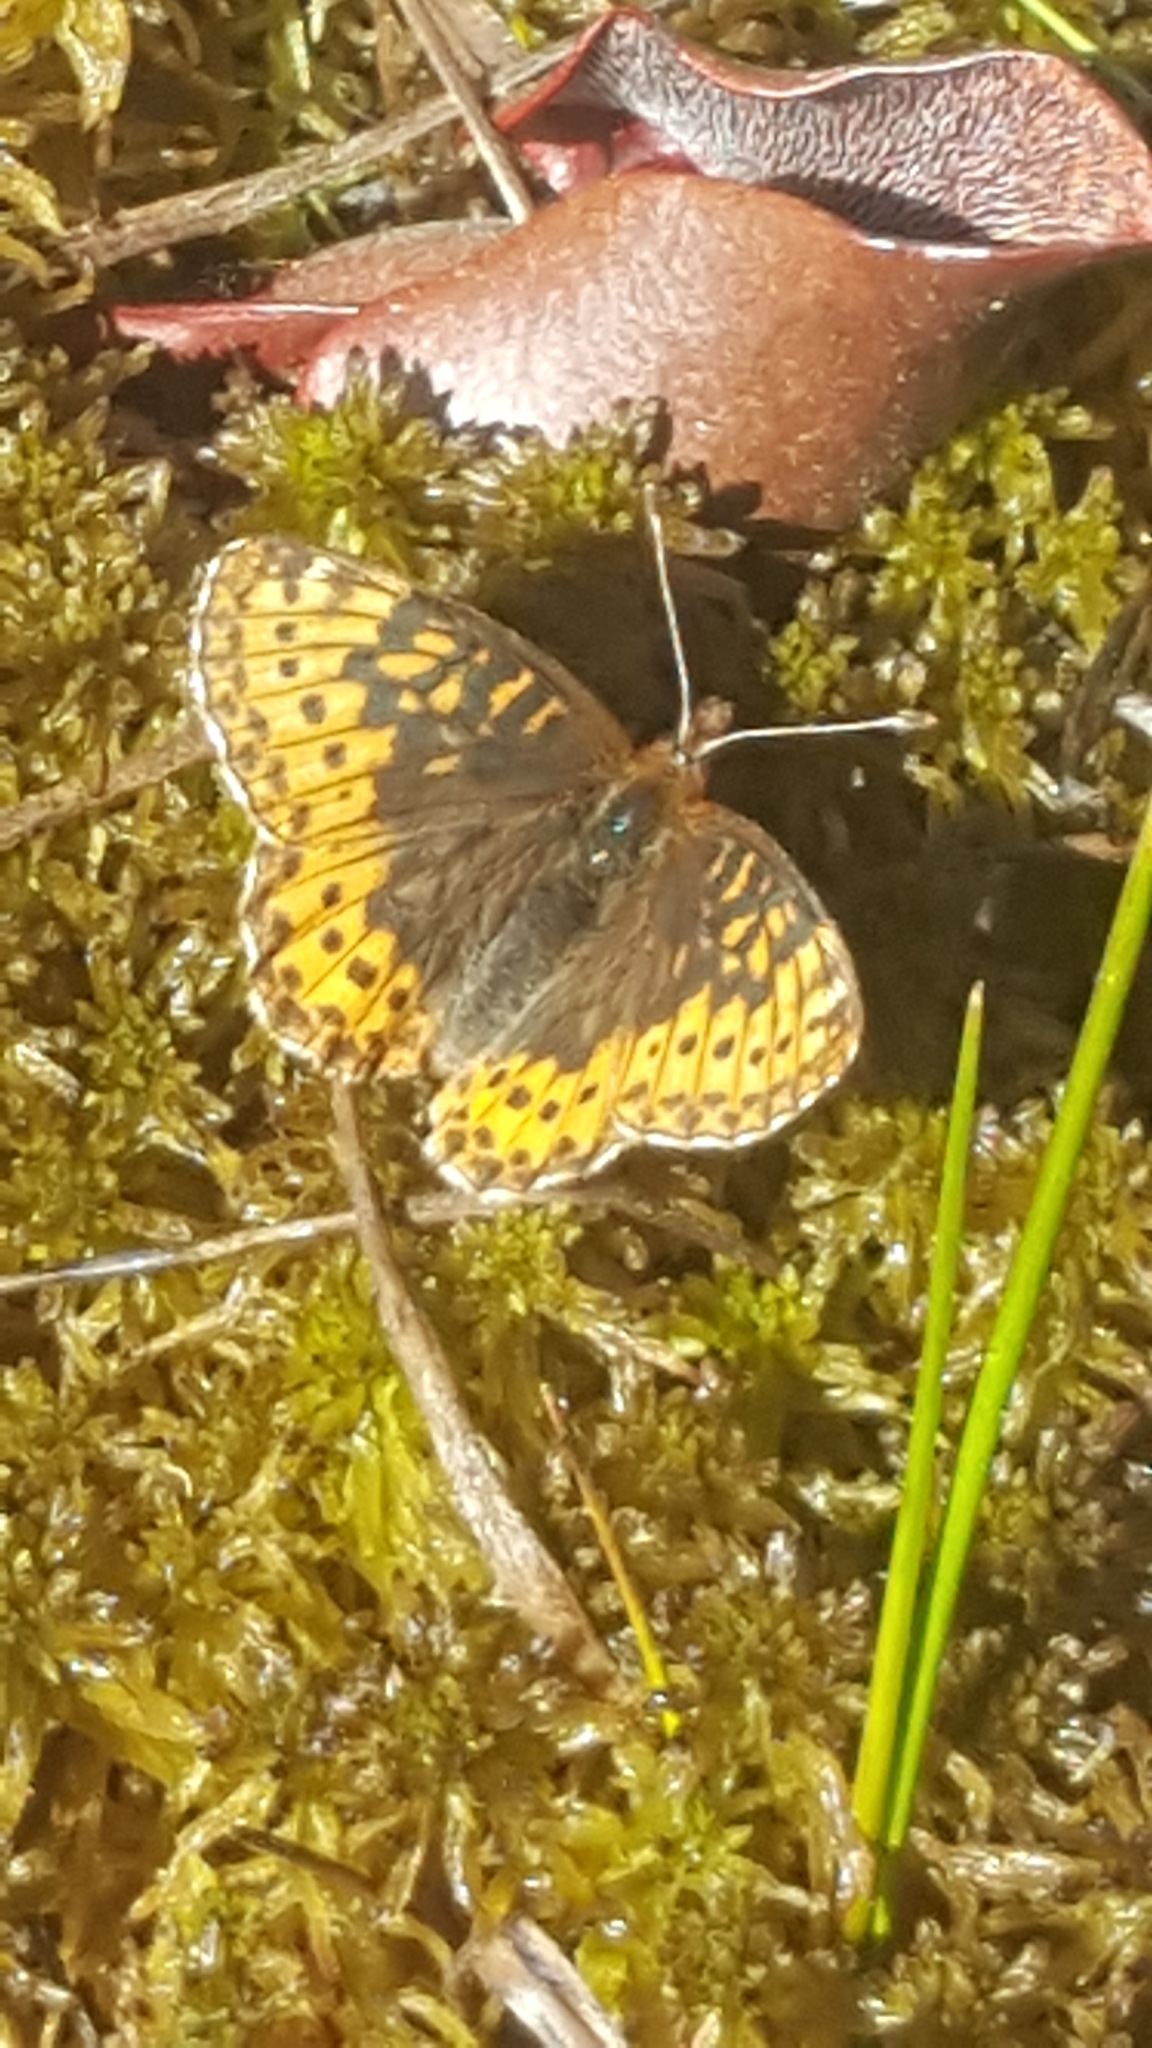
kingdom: Animalia
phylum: Arthropoda
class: Insecta
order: Lepidoptera
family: Nymphalidae
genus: Boloria
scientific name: Boloria frigga
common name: Frigga's fritillary
